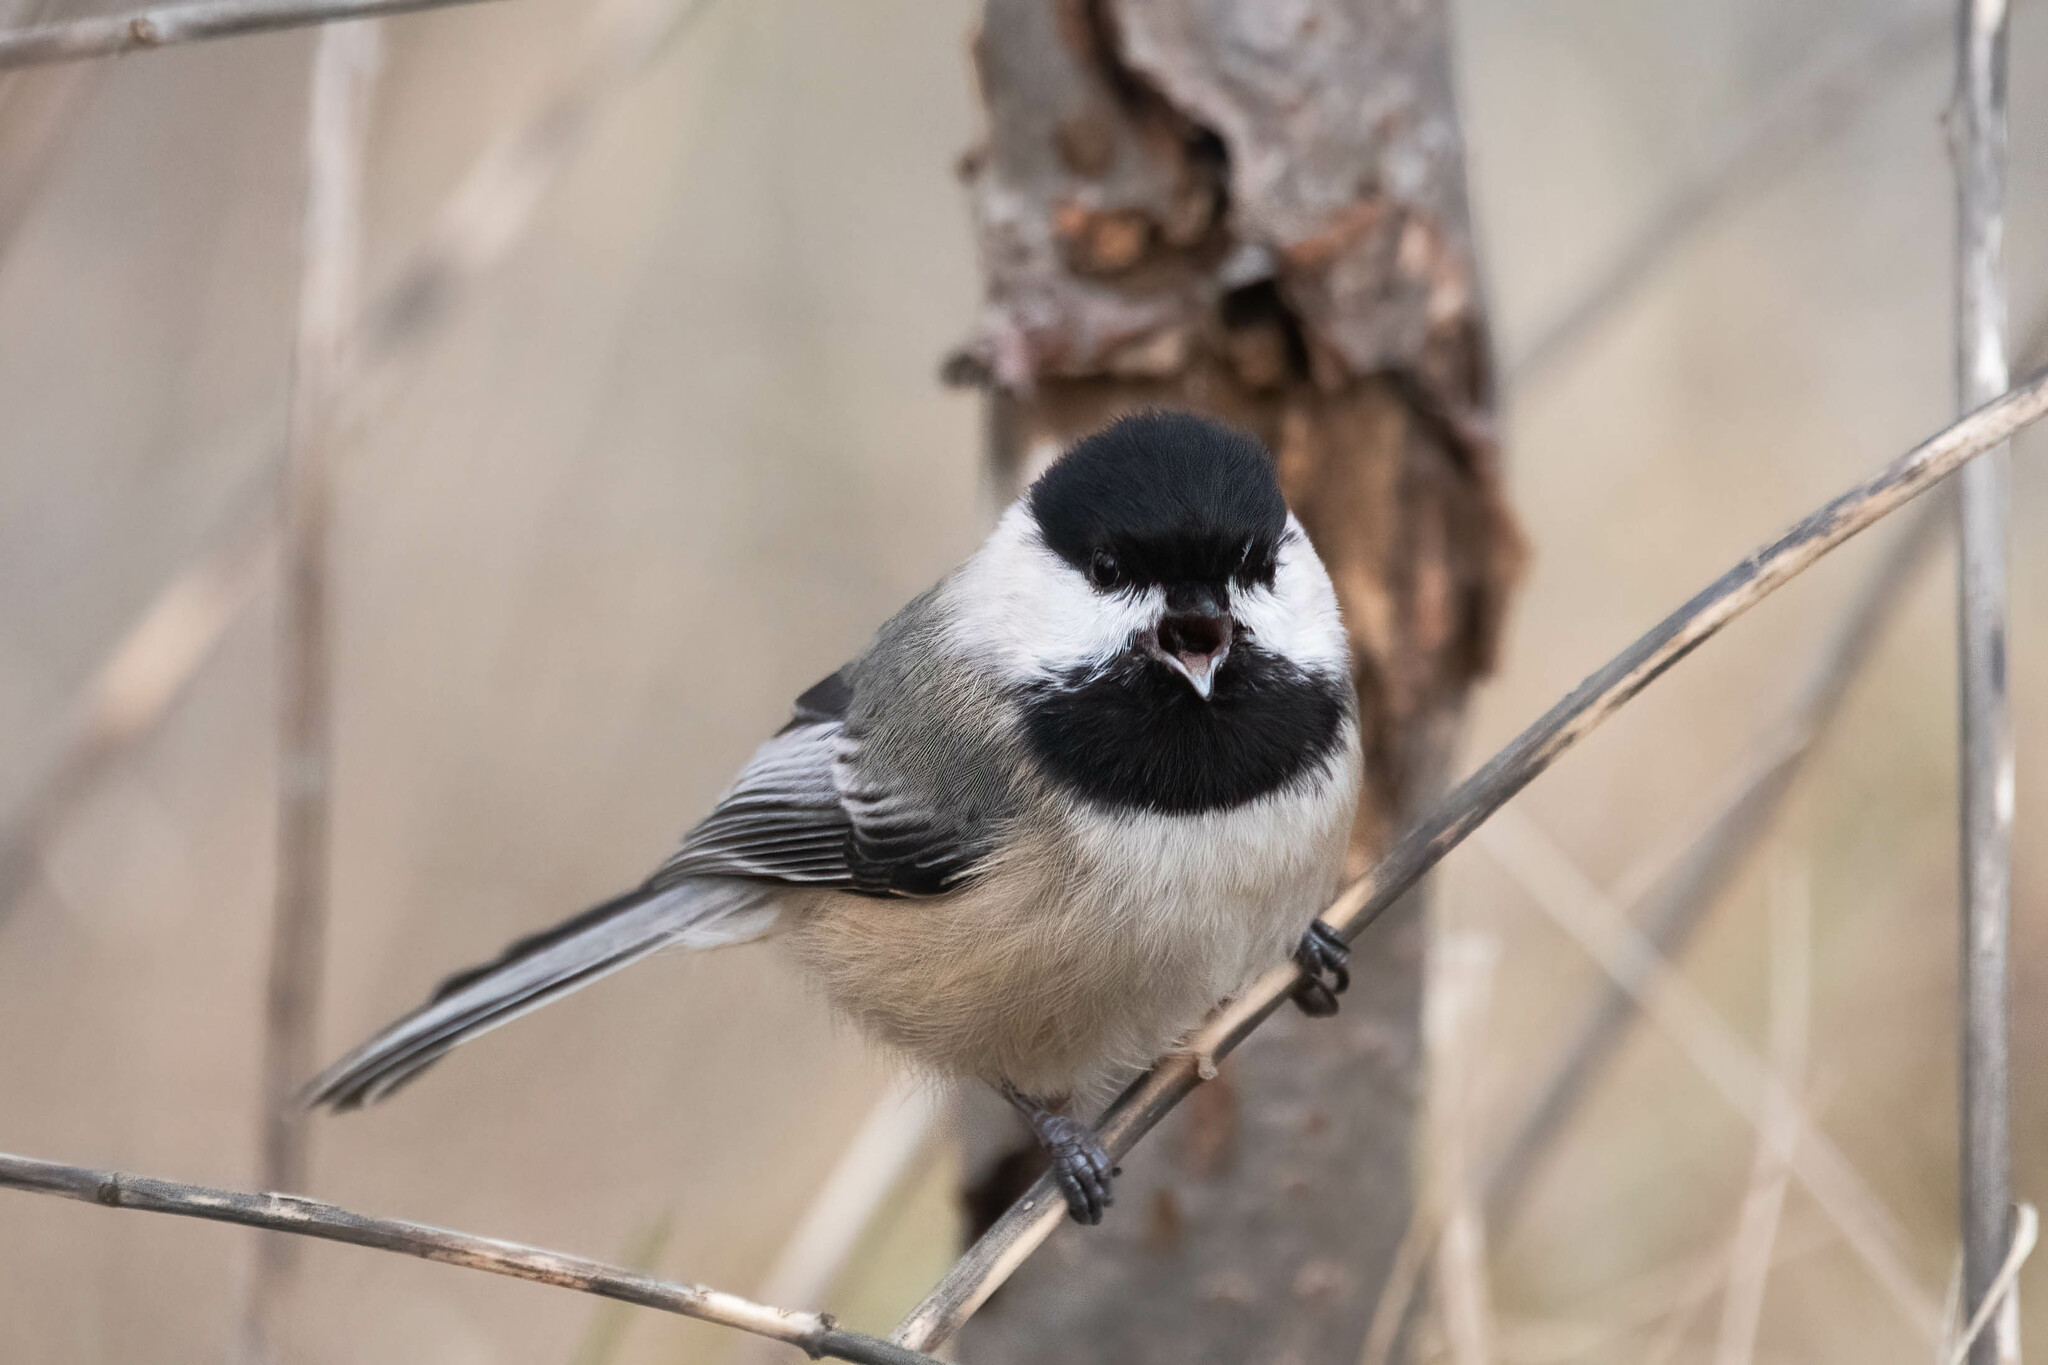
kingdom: Animalia
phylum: Chordata
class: Aves
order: Passeriformes
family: Paridae
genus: Poecile
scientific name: Poecile atricapillus
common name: Black-capped chickadee
